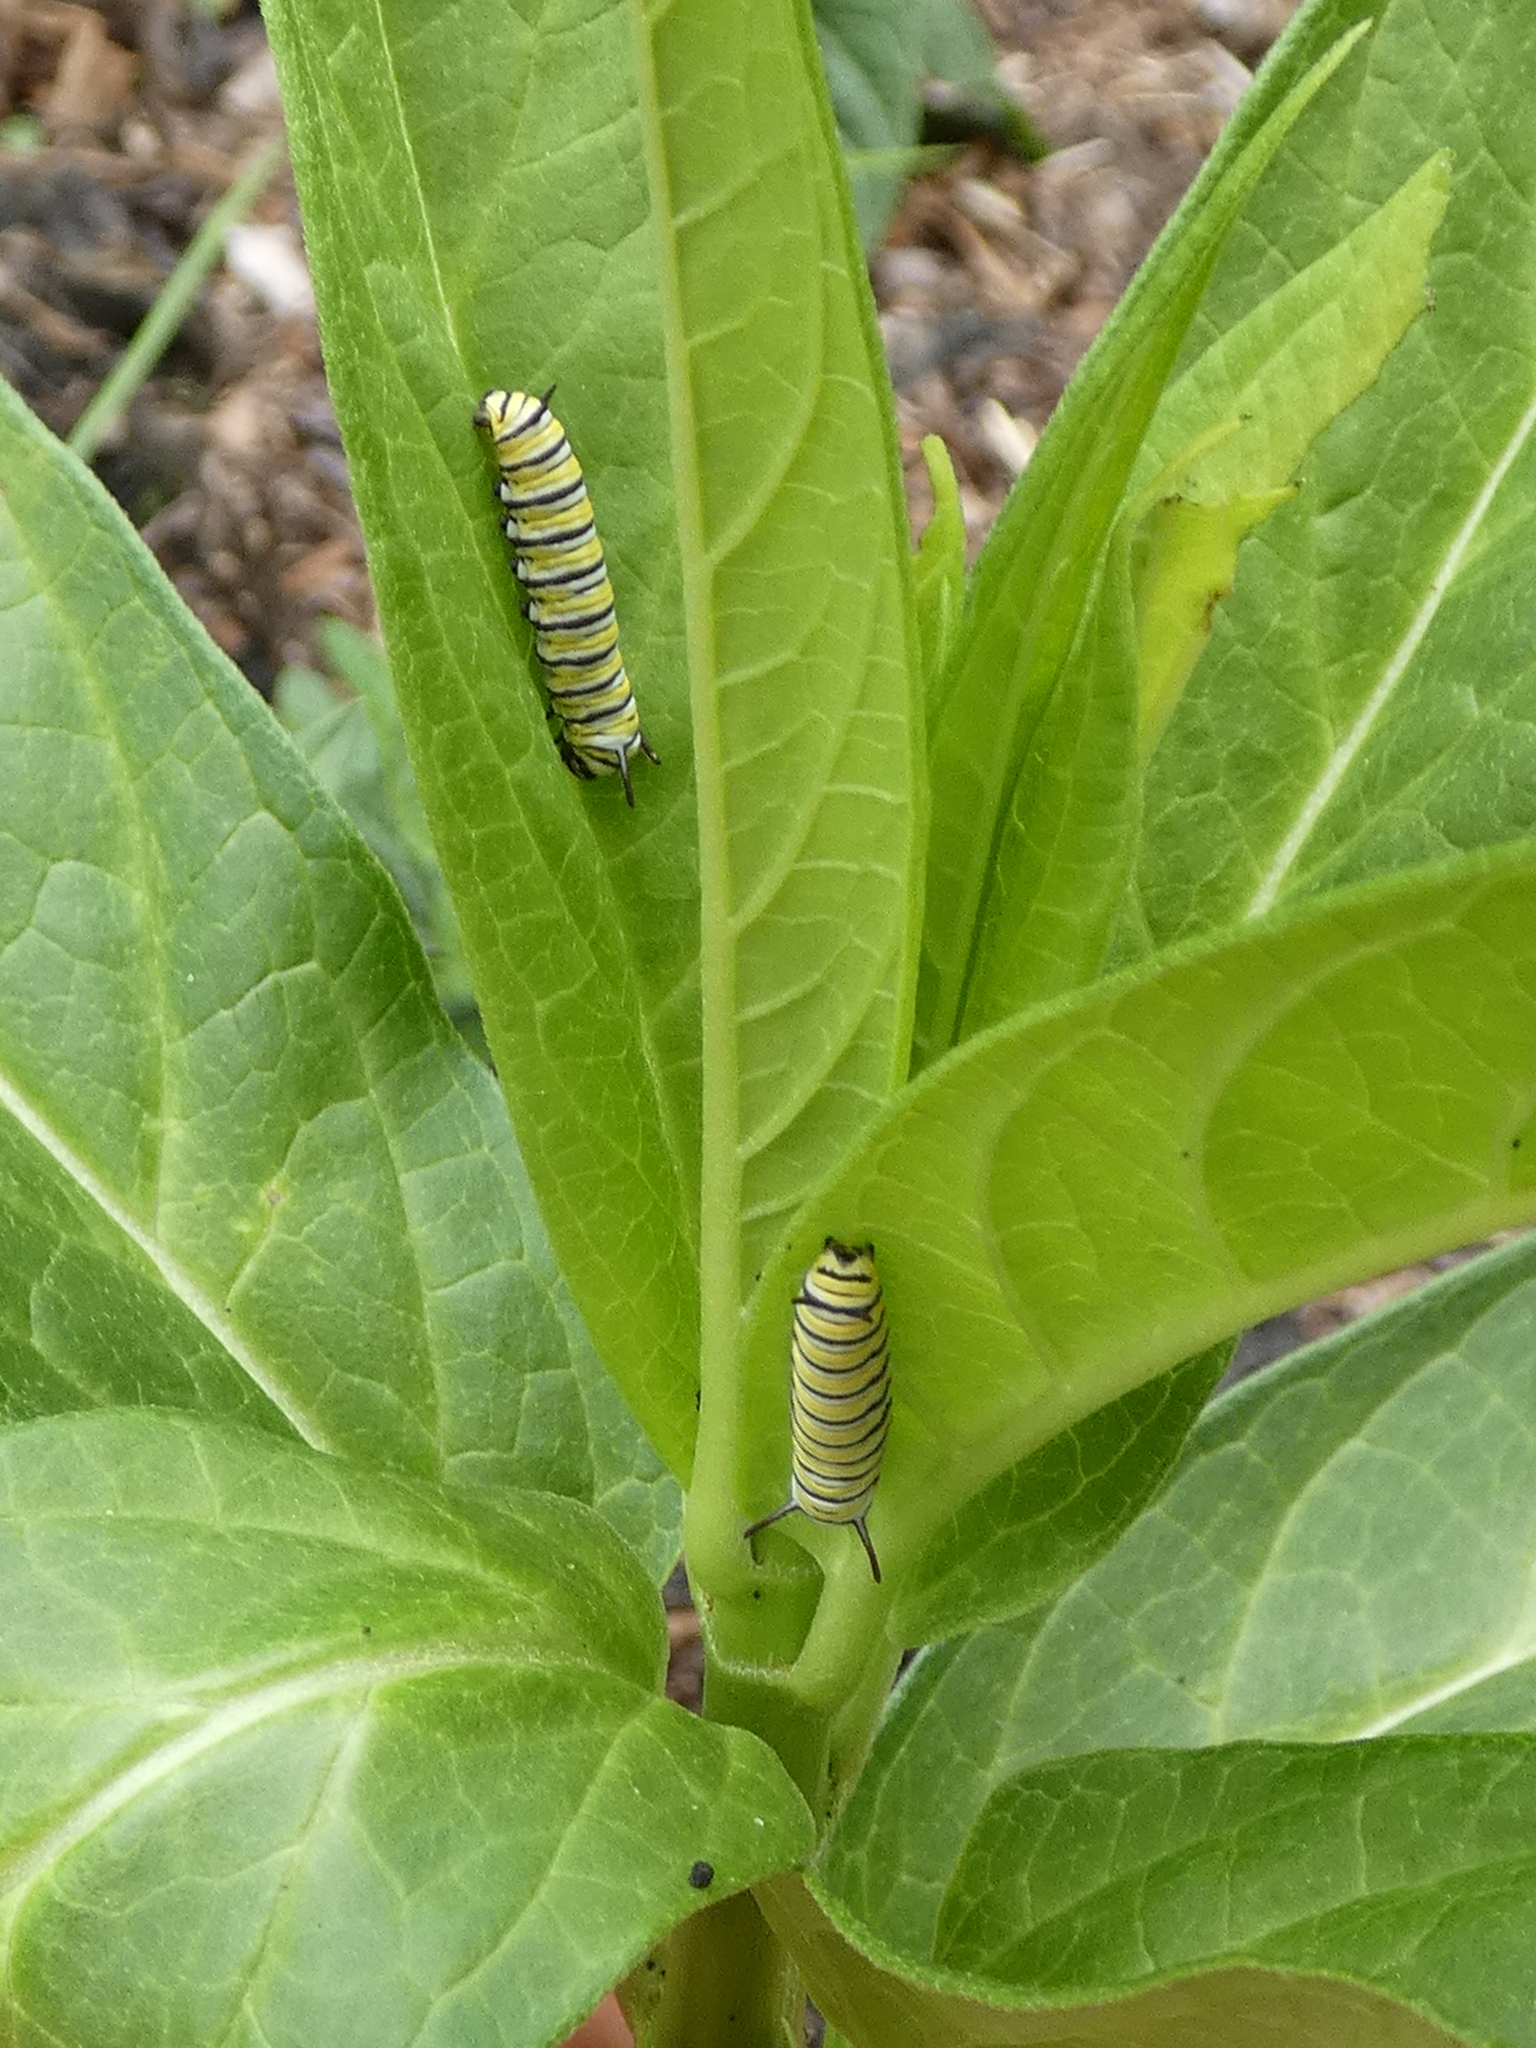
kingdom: Animalia
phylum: Arthropoda
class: Insecta
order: Lepidoptera
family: Nymphalidae
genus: Danaus
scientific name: Danaus plexippus
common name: Monarch
